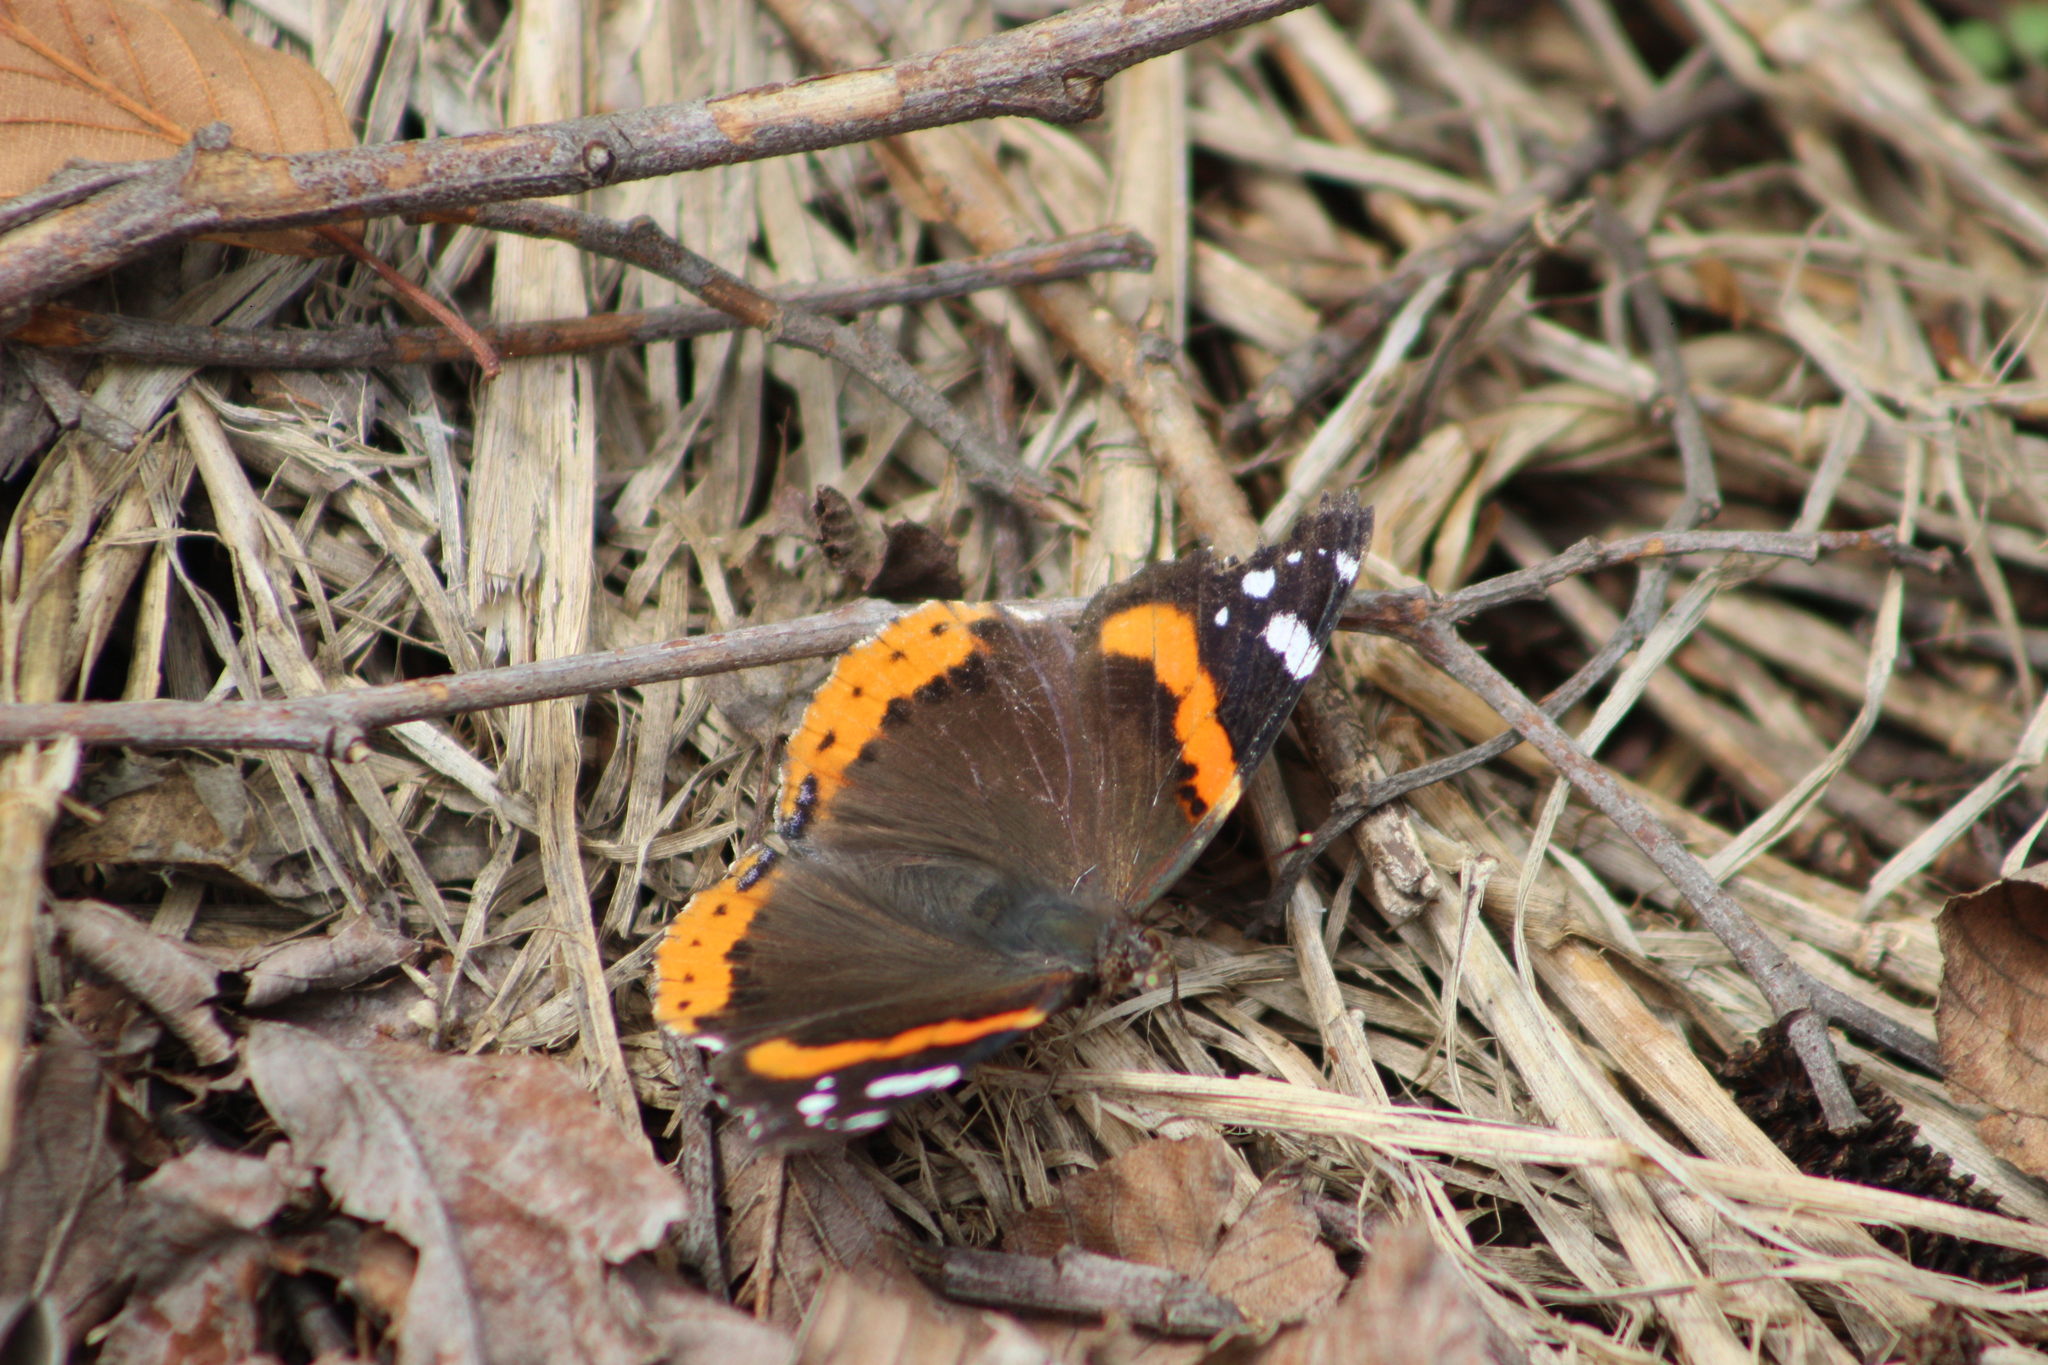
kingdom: Animalia
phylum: Arthropoda
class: Insecta
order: Lepidoptera
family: Nymphalidae
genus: Vanessa
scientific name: Vanessa atalanta
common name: Red admiral
